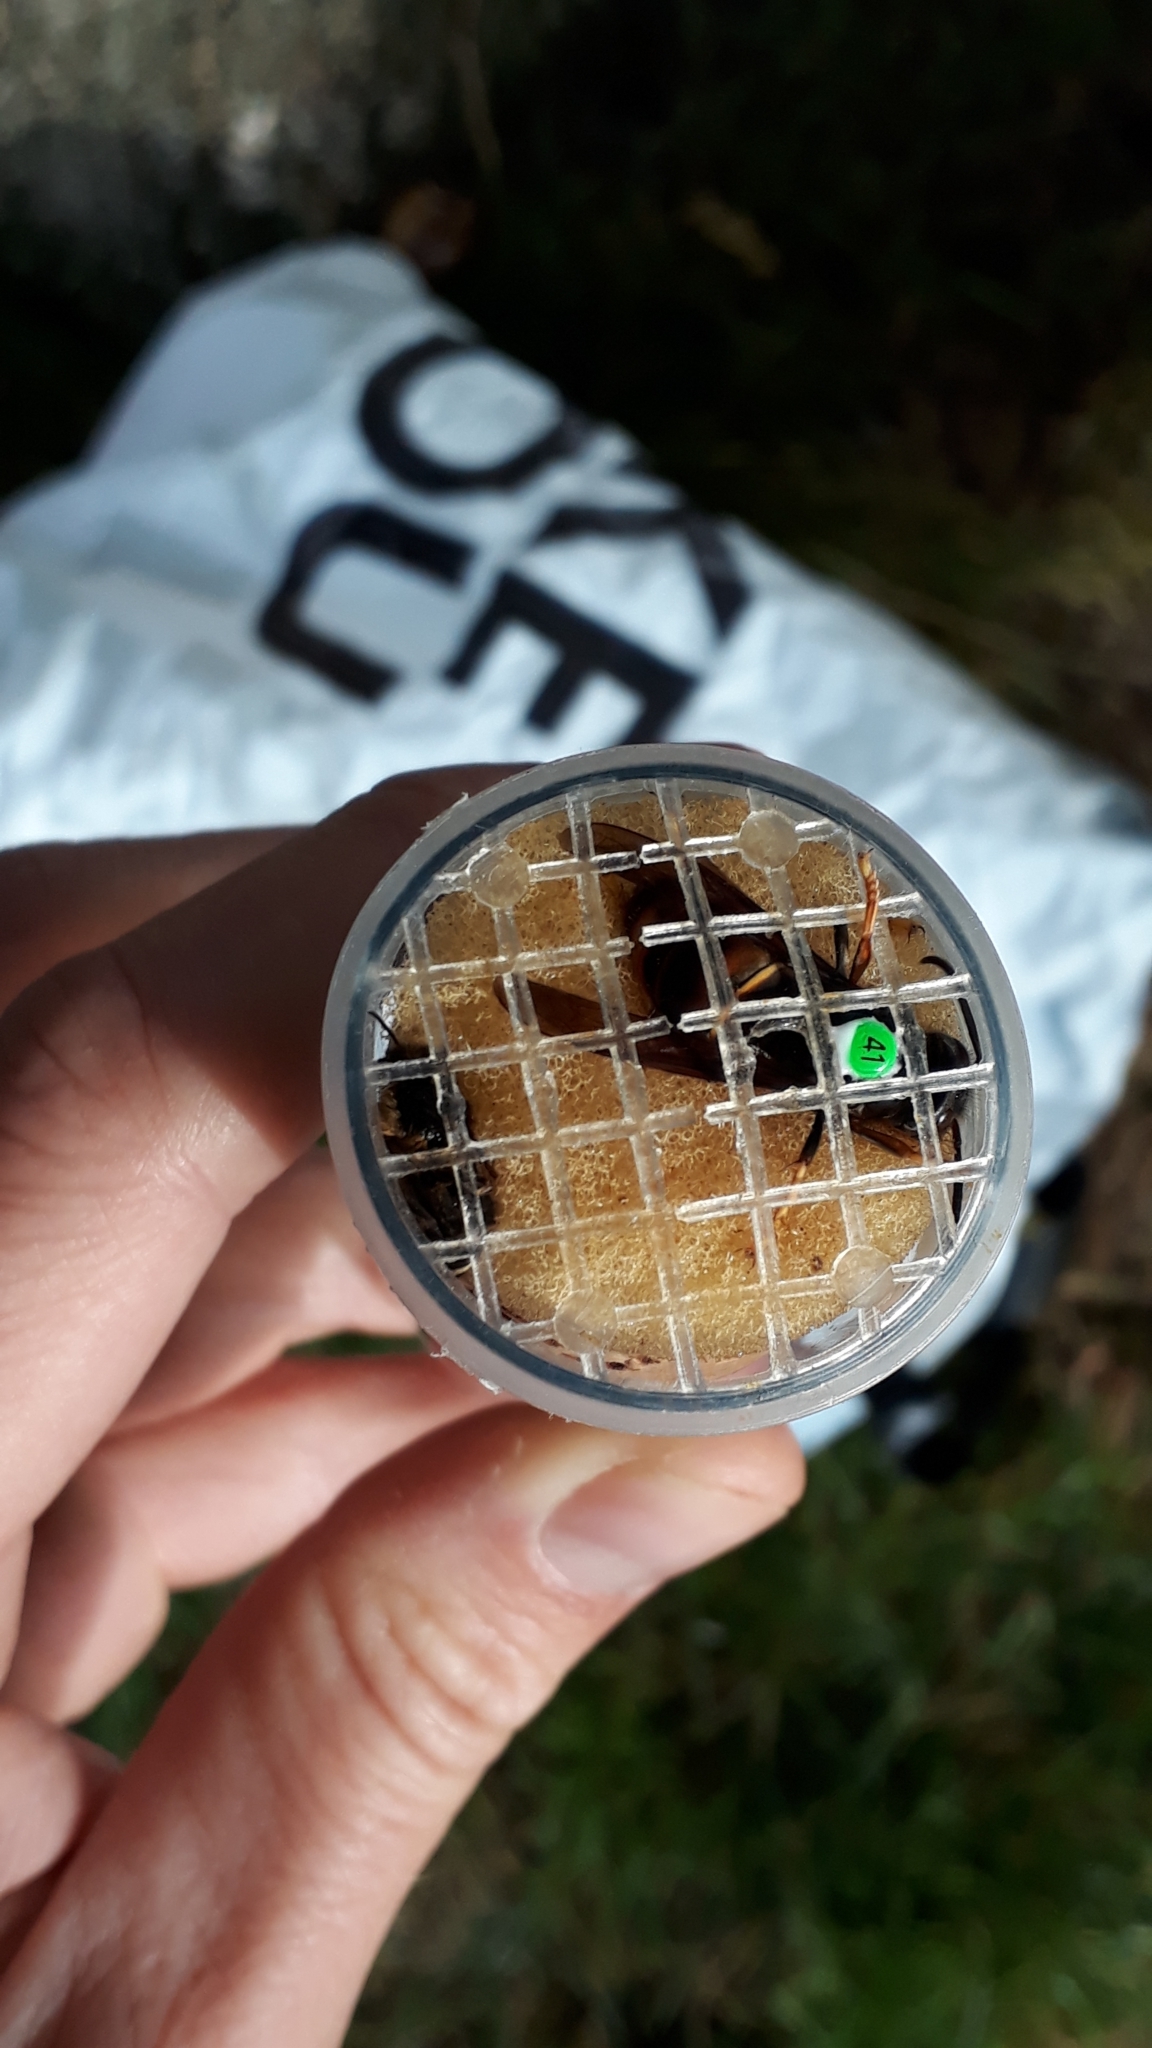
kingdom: Animalia
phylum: Arthropoda
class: Insecta
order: Hymenoptera
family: Vespidae
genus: Vespa
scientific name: Vespa velutina
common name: Asian hornet
